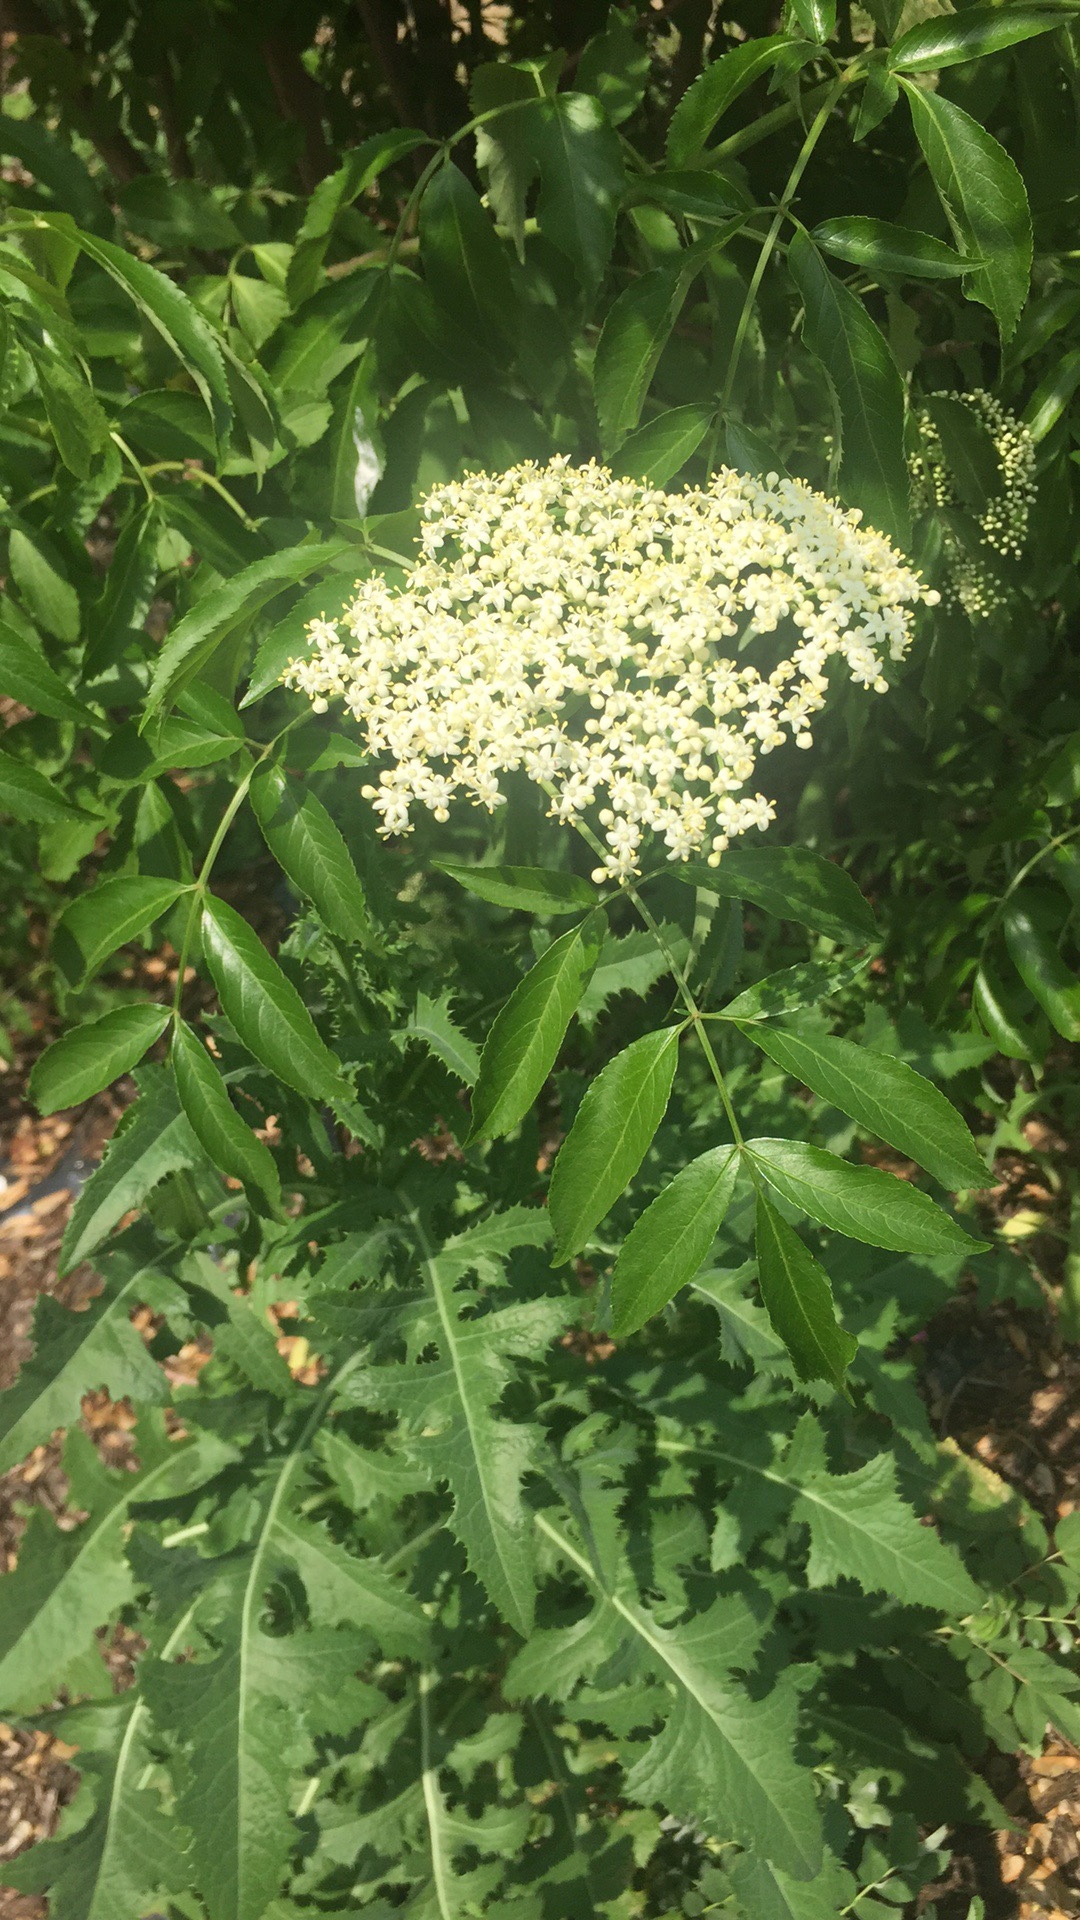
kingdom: Plantae
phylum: Tracheophyta
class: Magnoliopsida
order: Dipsacales
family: Viburnaceae
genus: Sambucus
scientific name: Sambucus canadensis
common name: American elder
